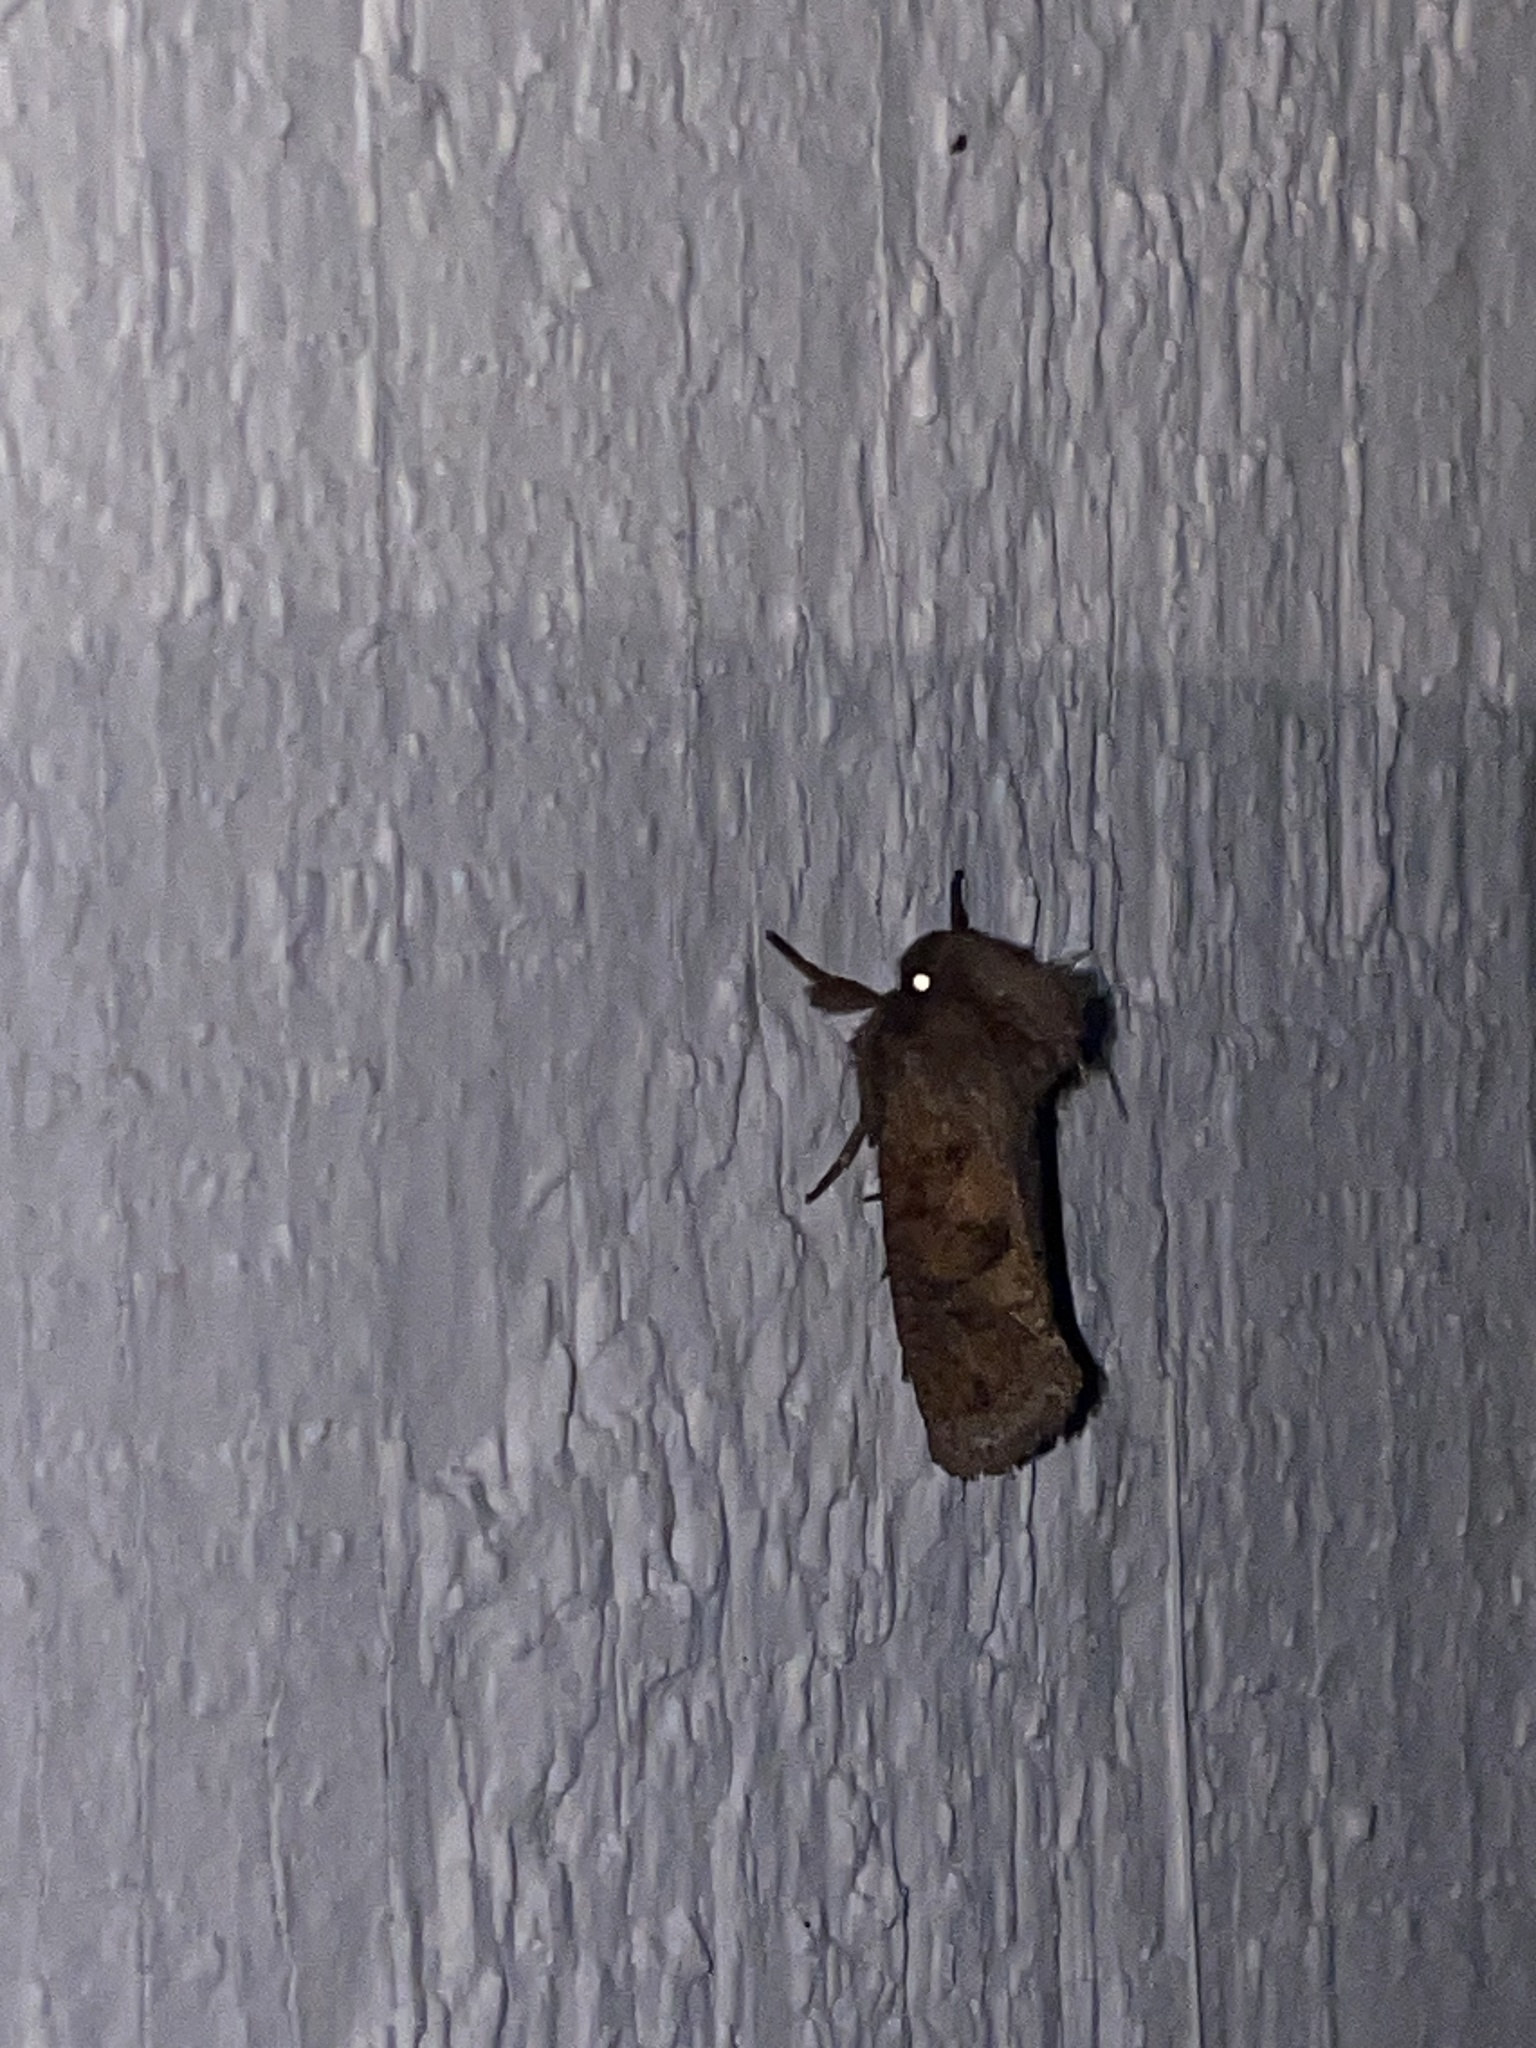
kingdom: Animalia
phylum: Arthropoda
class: Insecta
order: Lepidoptera
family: Tineidae
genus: Acrolophus
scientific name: Acrolophus plumifrontella
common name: Eastern grass tubeworm moth
